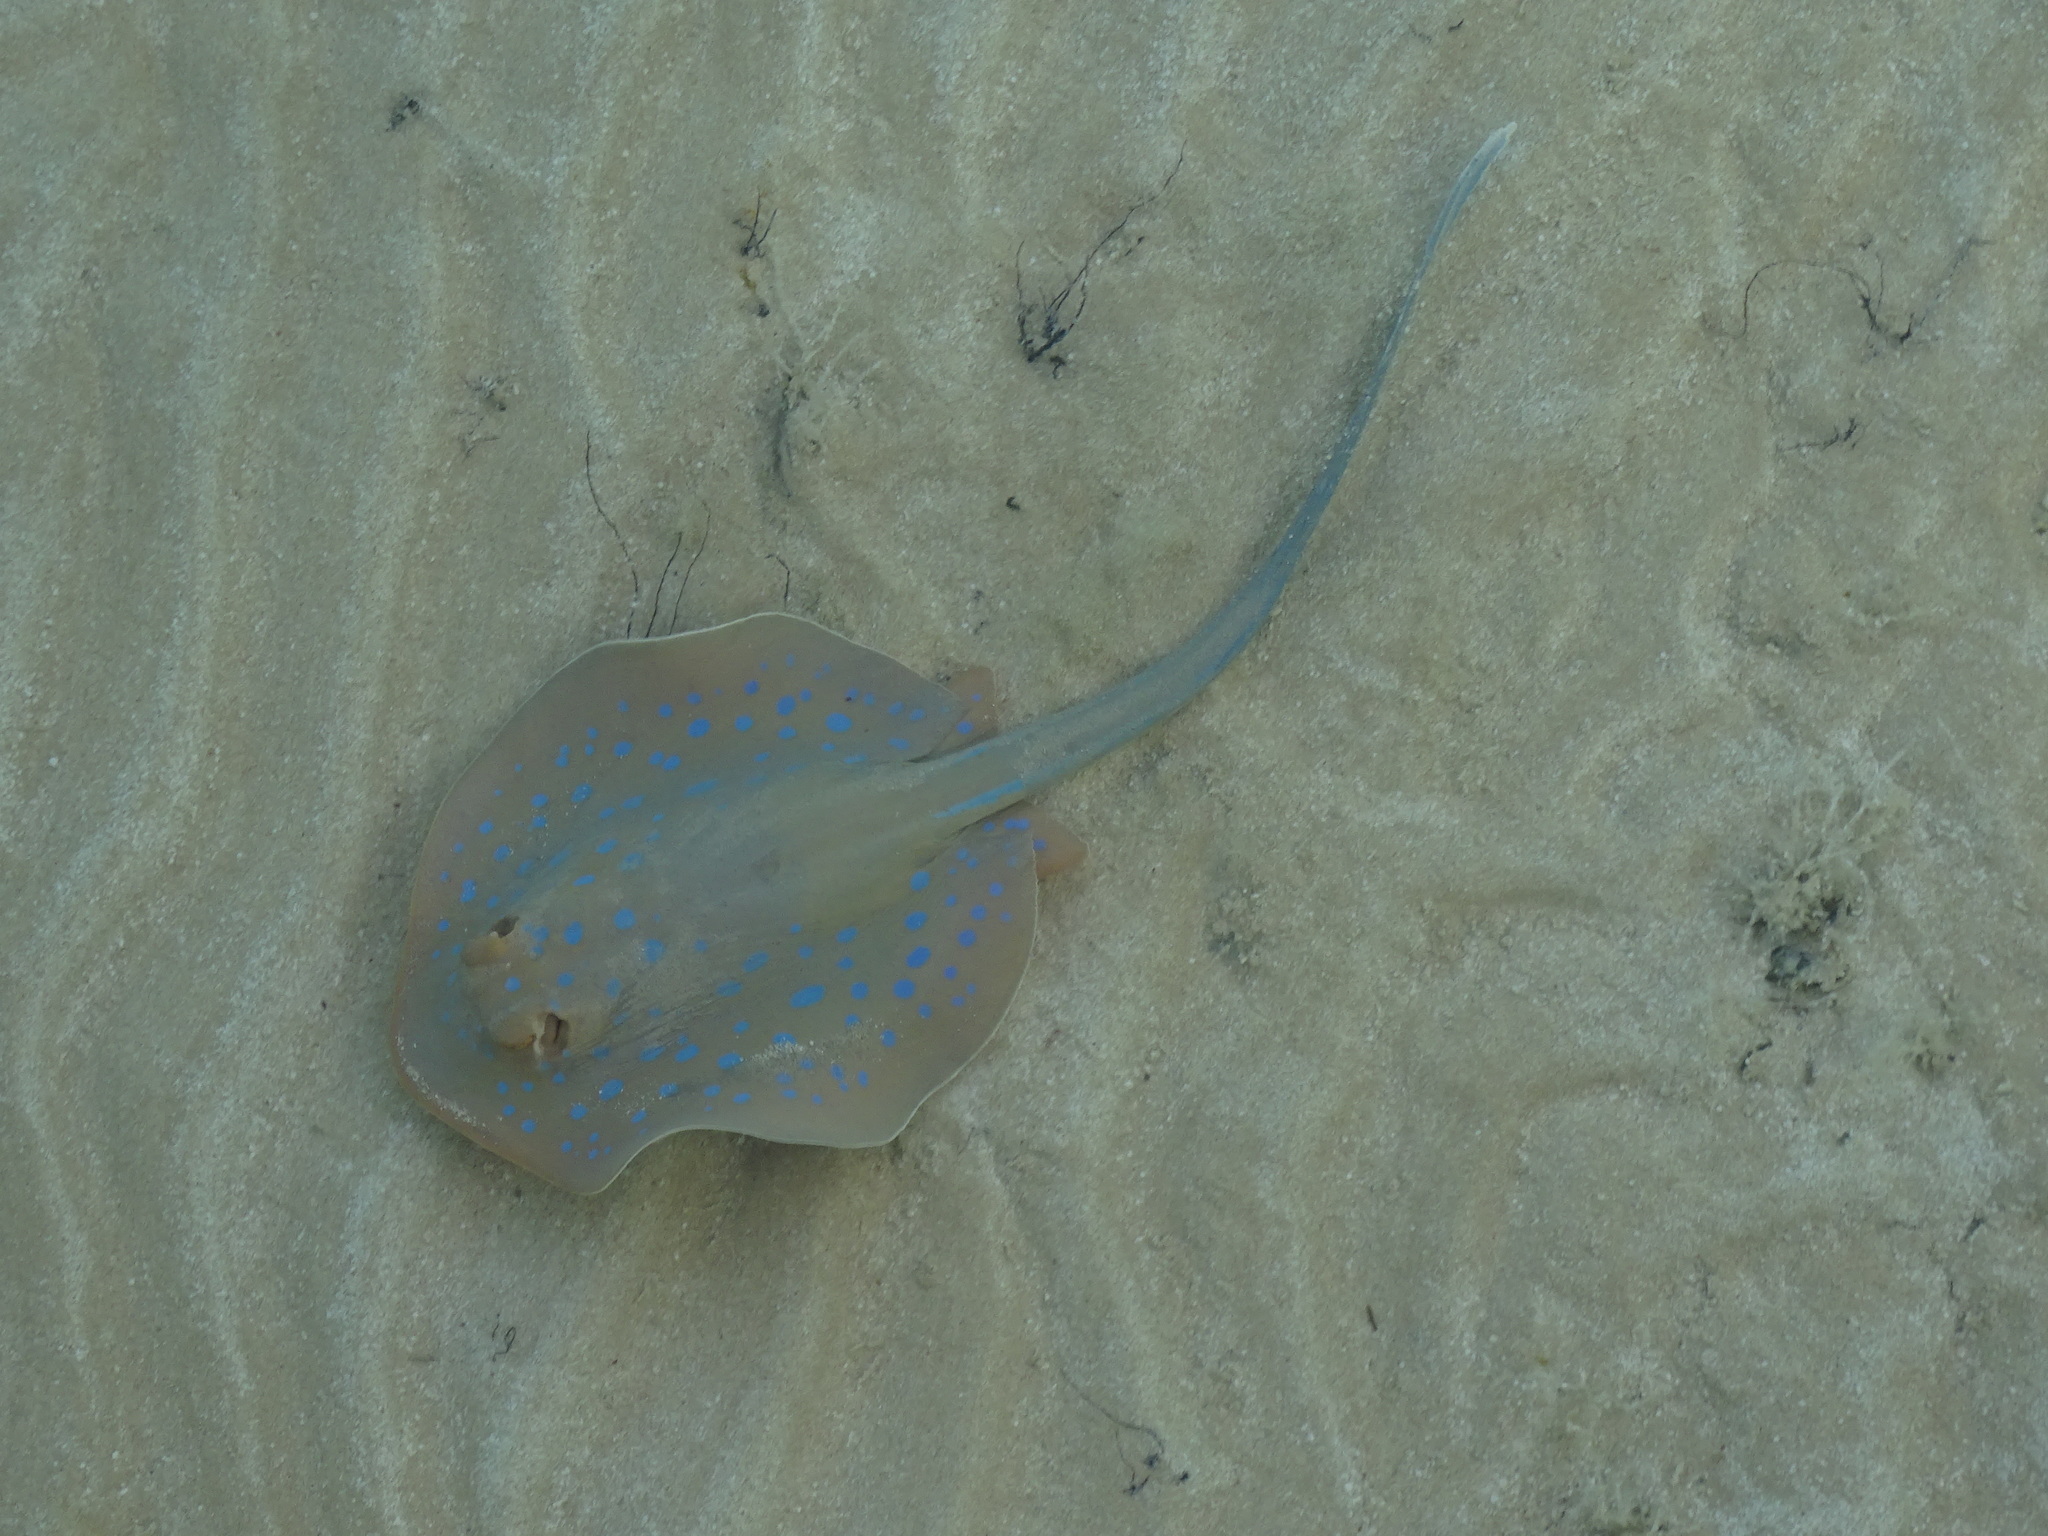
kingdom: Animalia
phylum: Chordata
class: Elasmobranchii
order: Myliobatiformes
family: Dasyatidae
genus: Taeniura
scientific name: Taeniura lymma
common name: Bluespotted ribbontail ray
